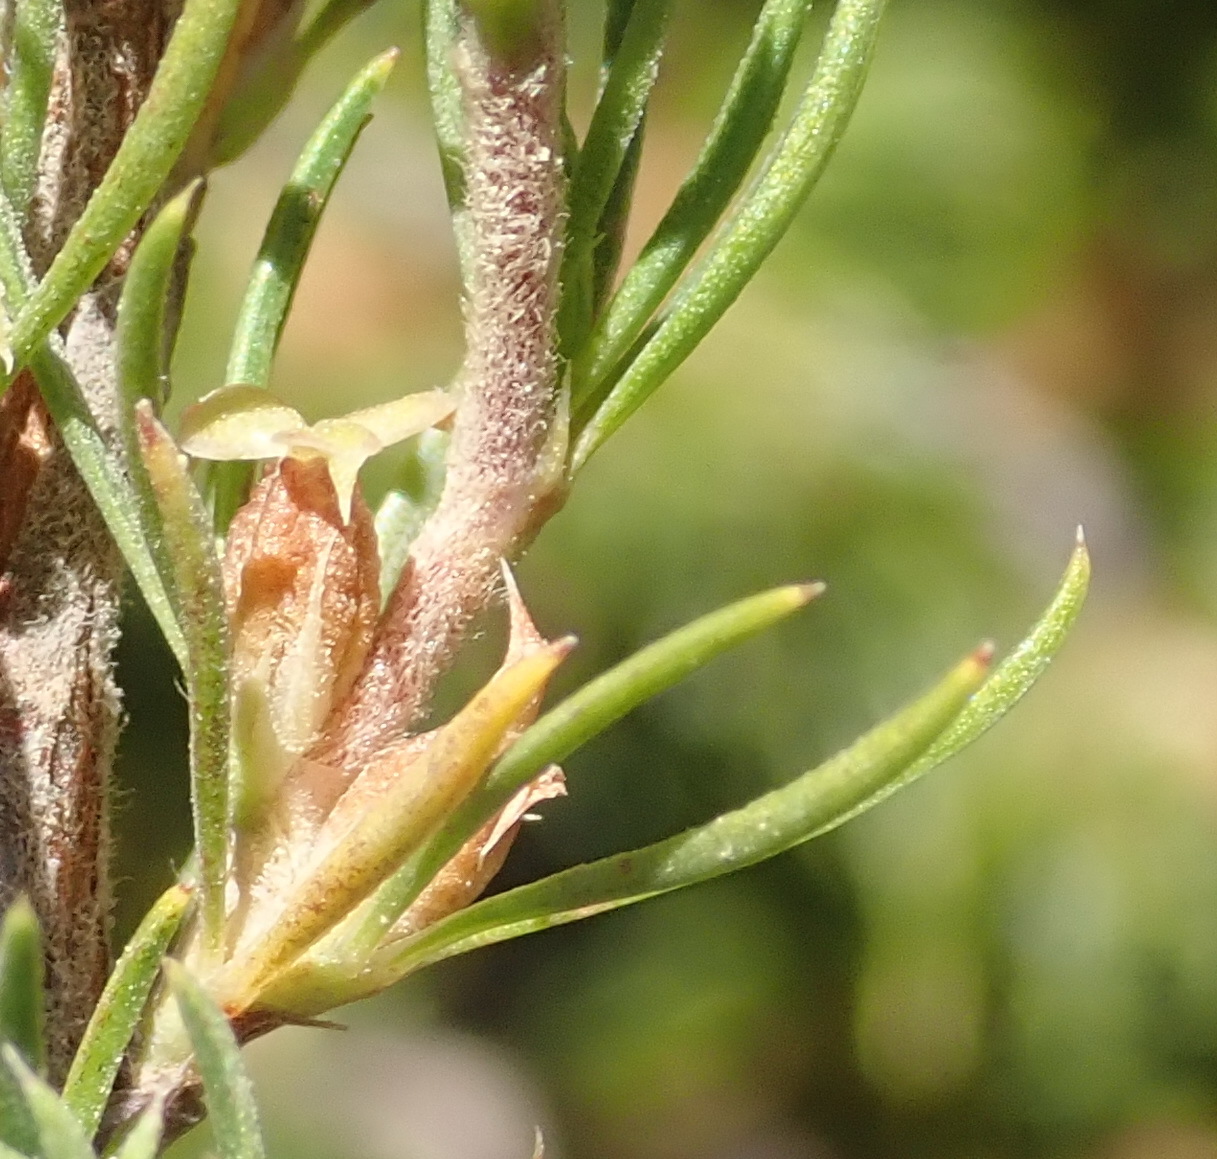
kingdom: Plantae
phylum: Tracheophyta
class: Magnoliopsida
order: Rosales
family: Rosaceae
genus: Cliffortia
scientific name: Cliffortia tuberculata
